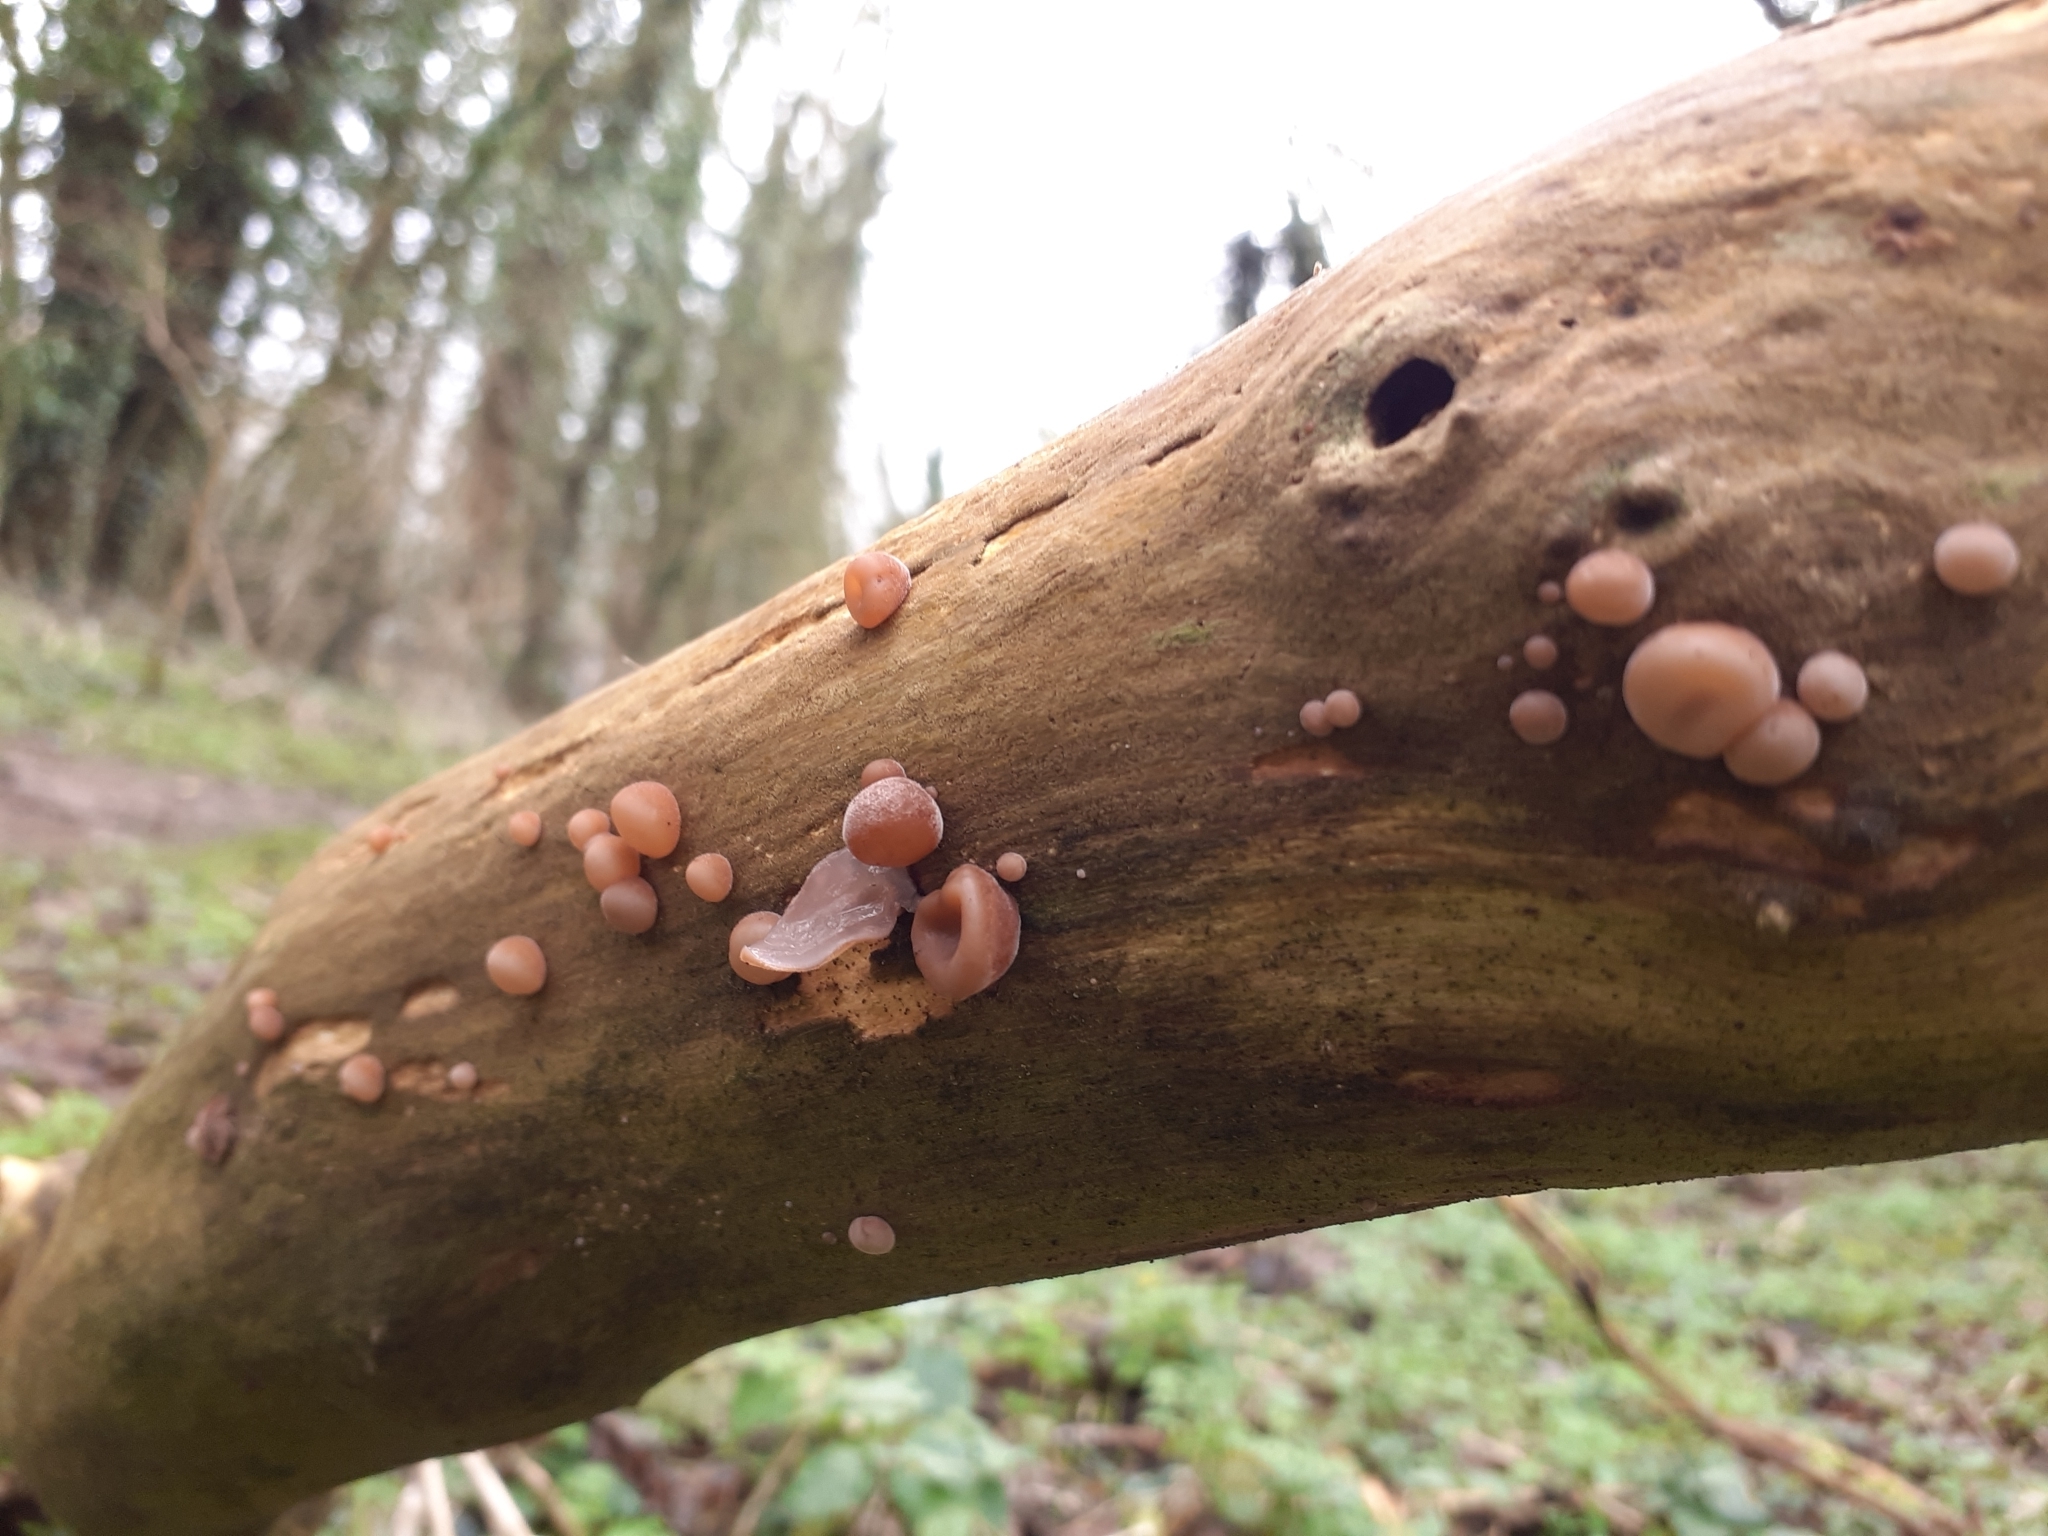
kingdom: Fungi
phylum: Basidiomycota
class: Agaricomycetes
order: Auriculariales
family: Auriculariaceae
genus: Auricularia
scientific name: Auricularia auricula-judae
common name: Jelly ear
